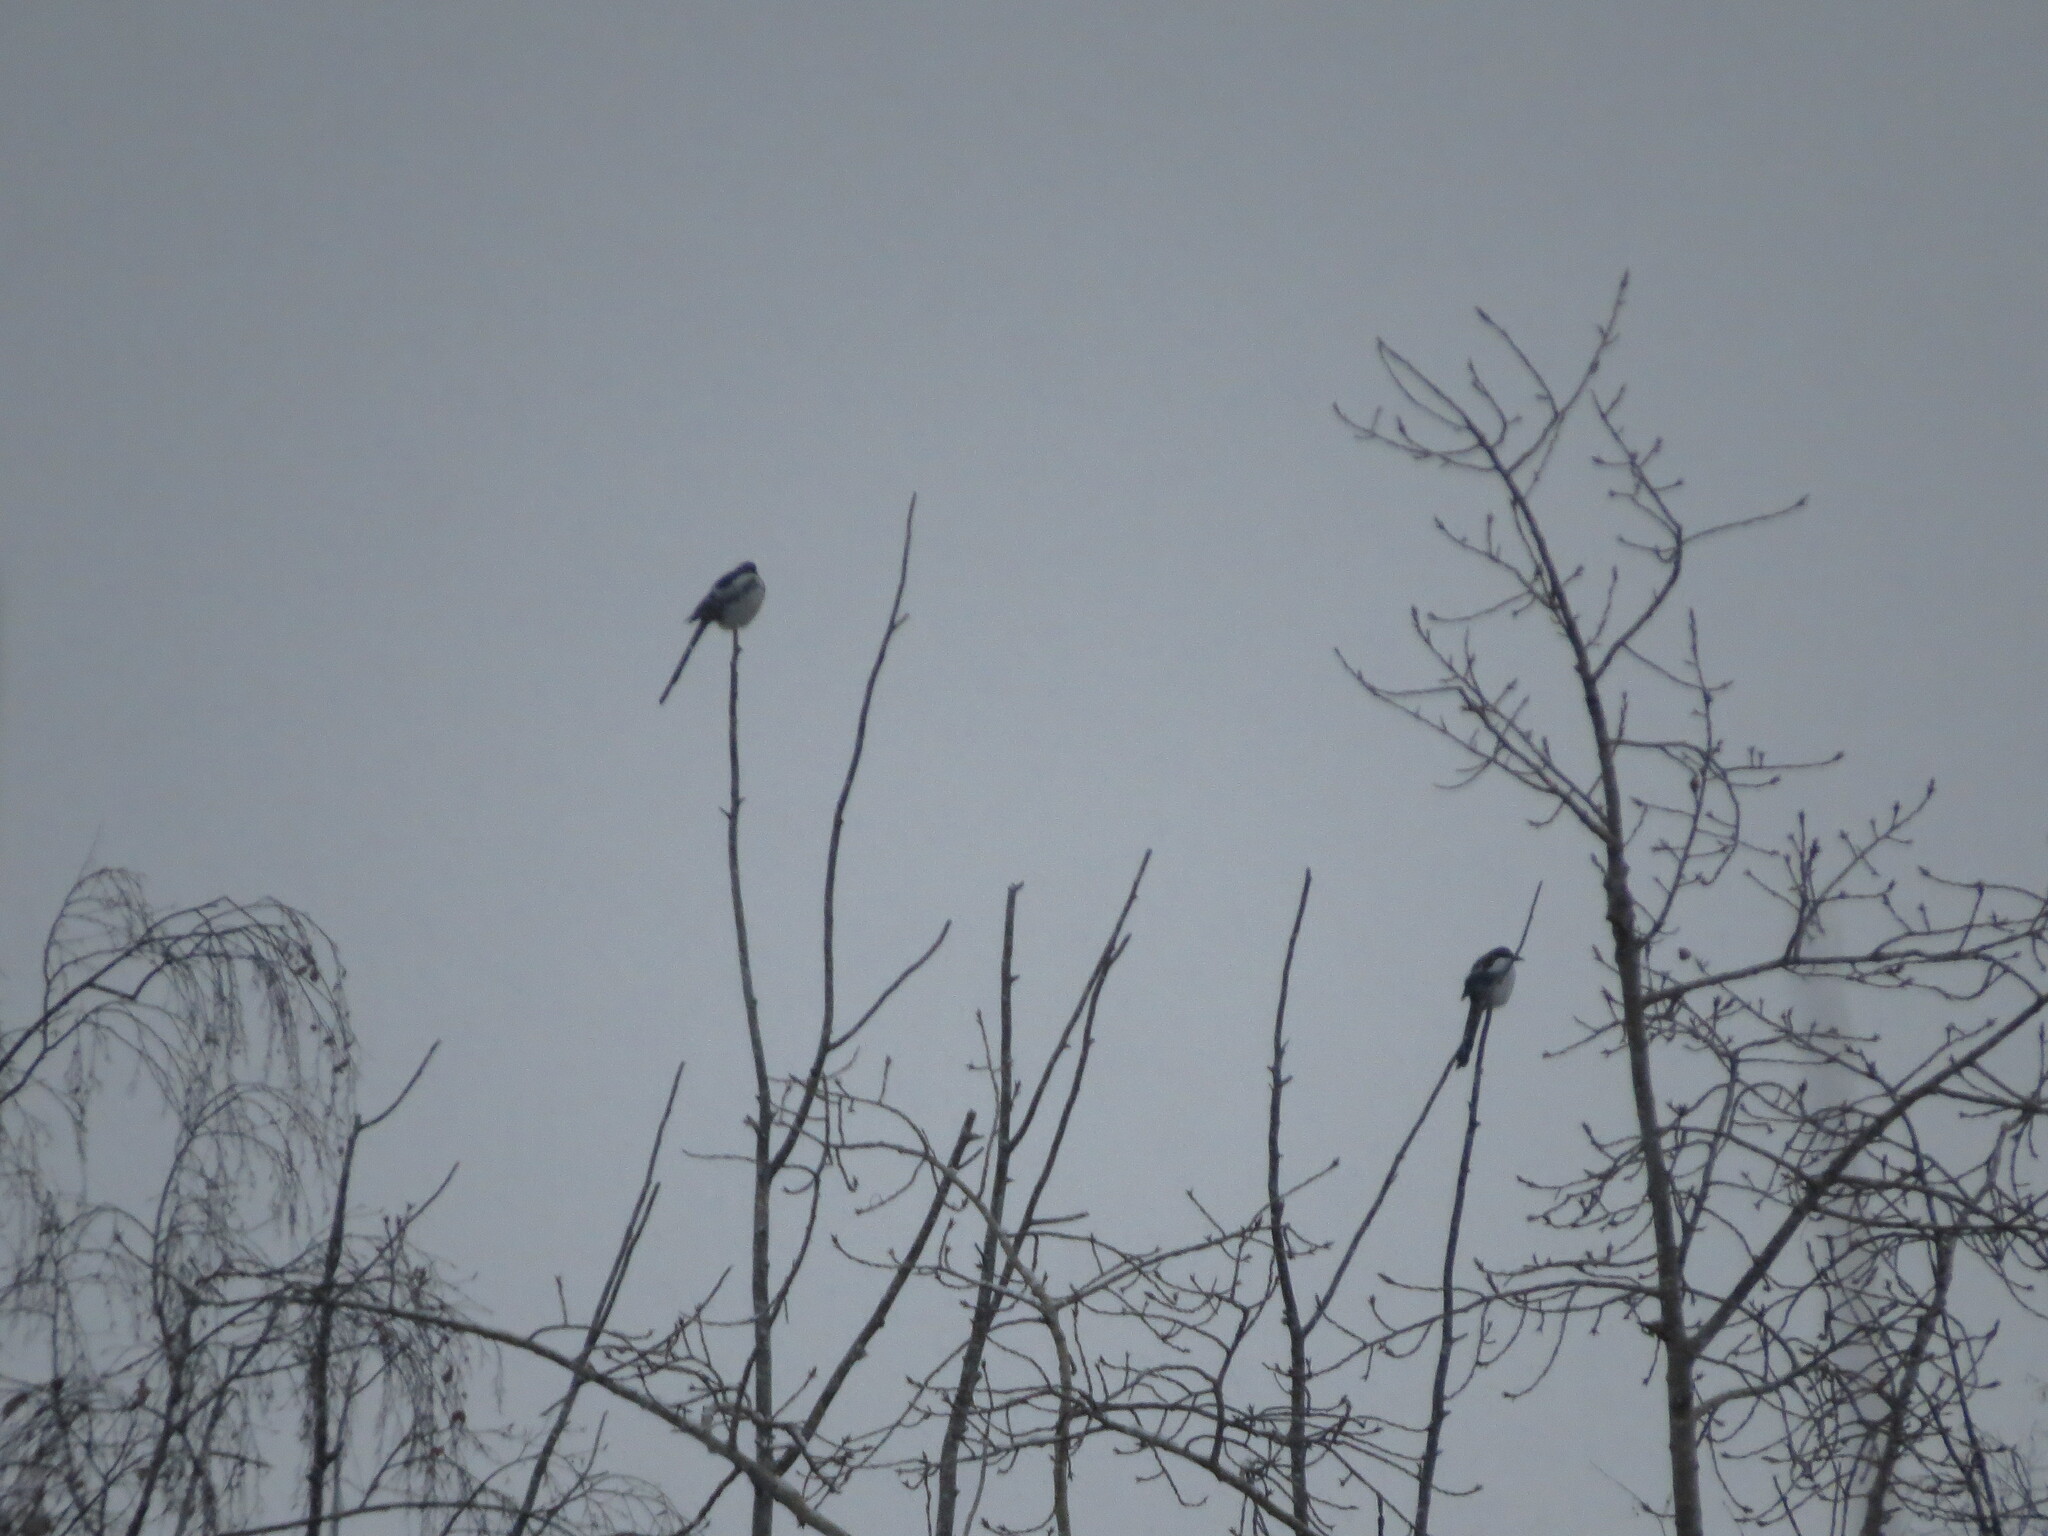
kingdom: Animalia
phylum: Chordata
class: Aves
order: Passeriformes
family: Corvidae
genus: Pica
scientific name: Pica pica
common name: Eurasian magpie
